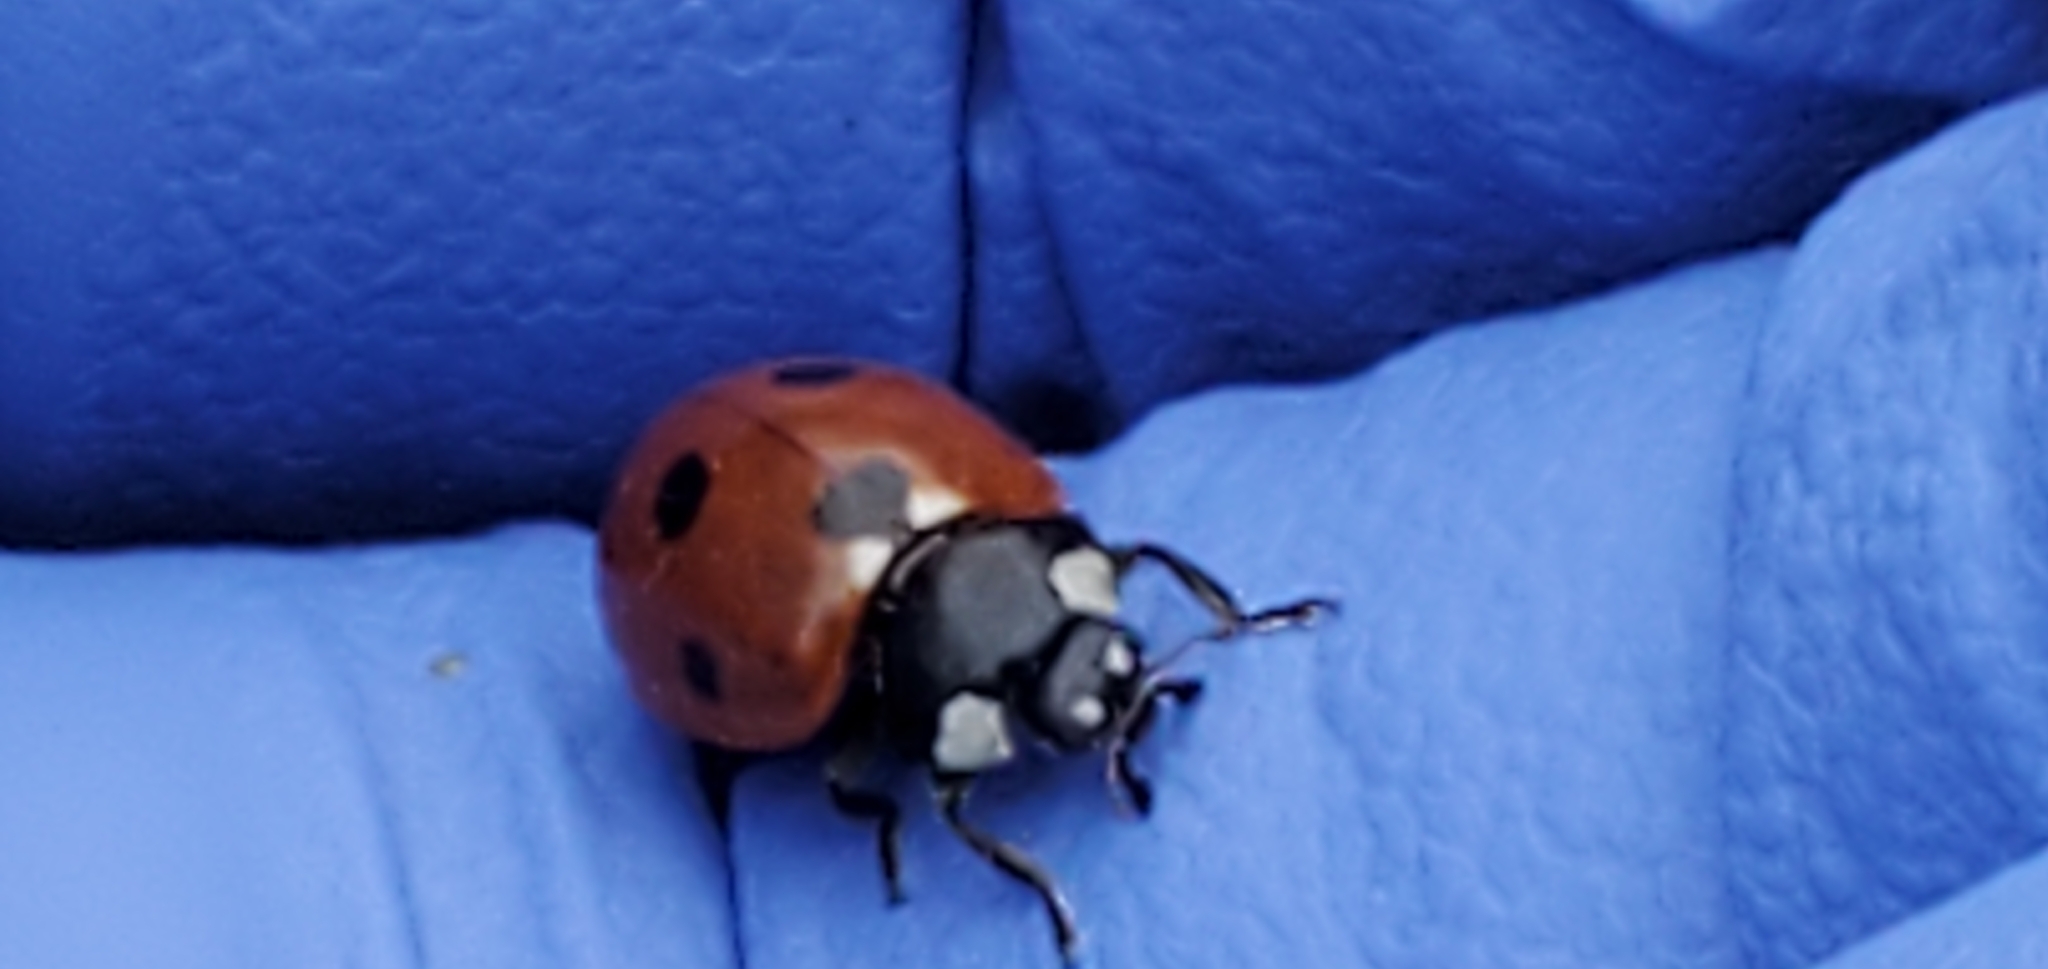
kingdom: Animalia
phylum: Arthropoda
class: Insecta
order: Coleoptera
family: Coccinellidae
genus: Coccinella
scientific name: Coccinella septempunctata
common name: Sevenspotted lady beetle
